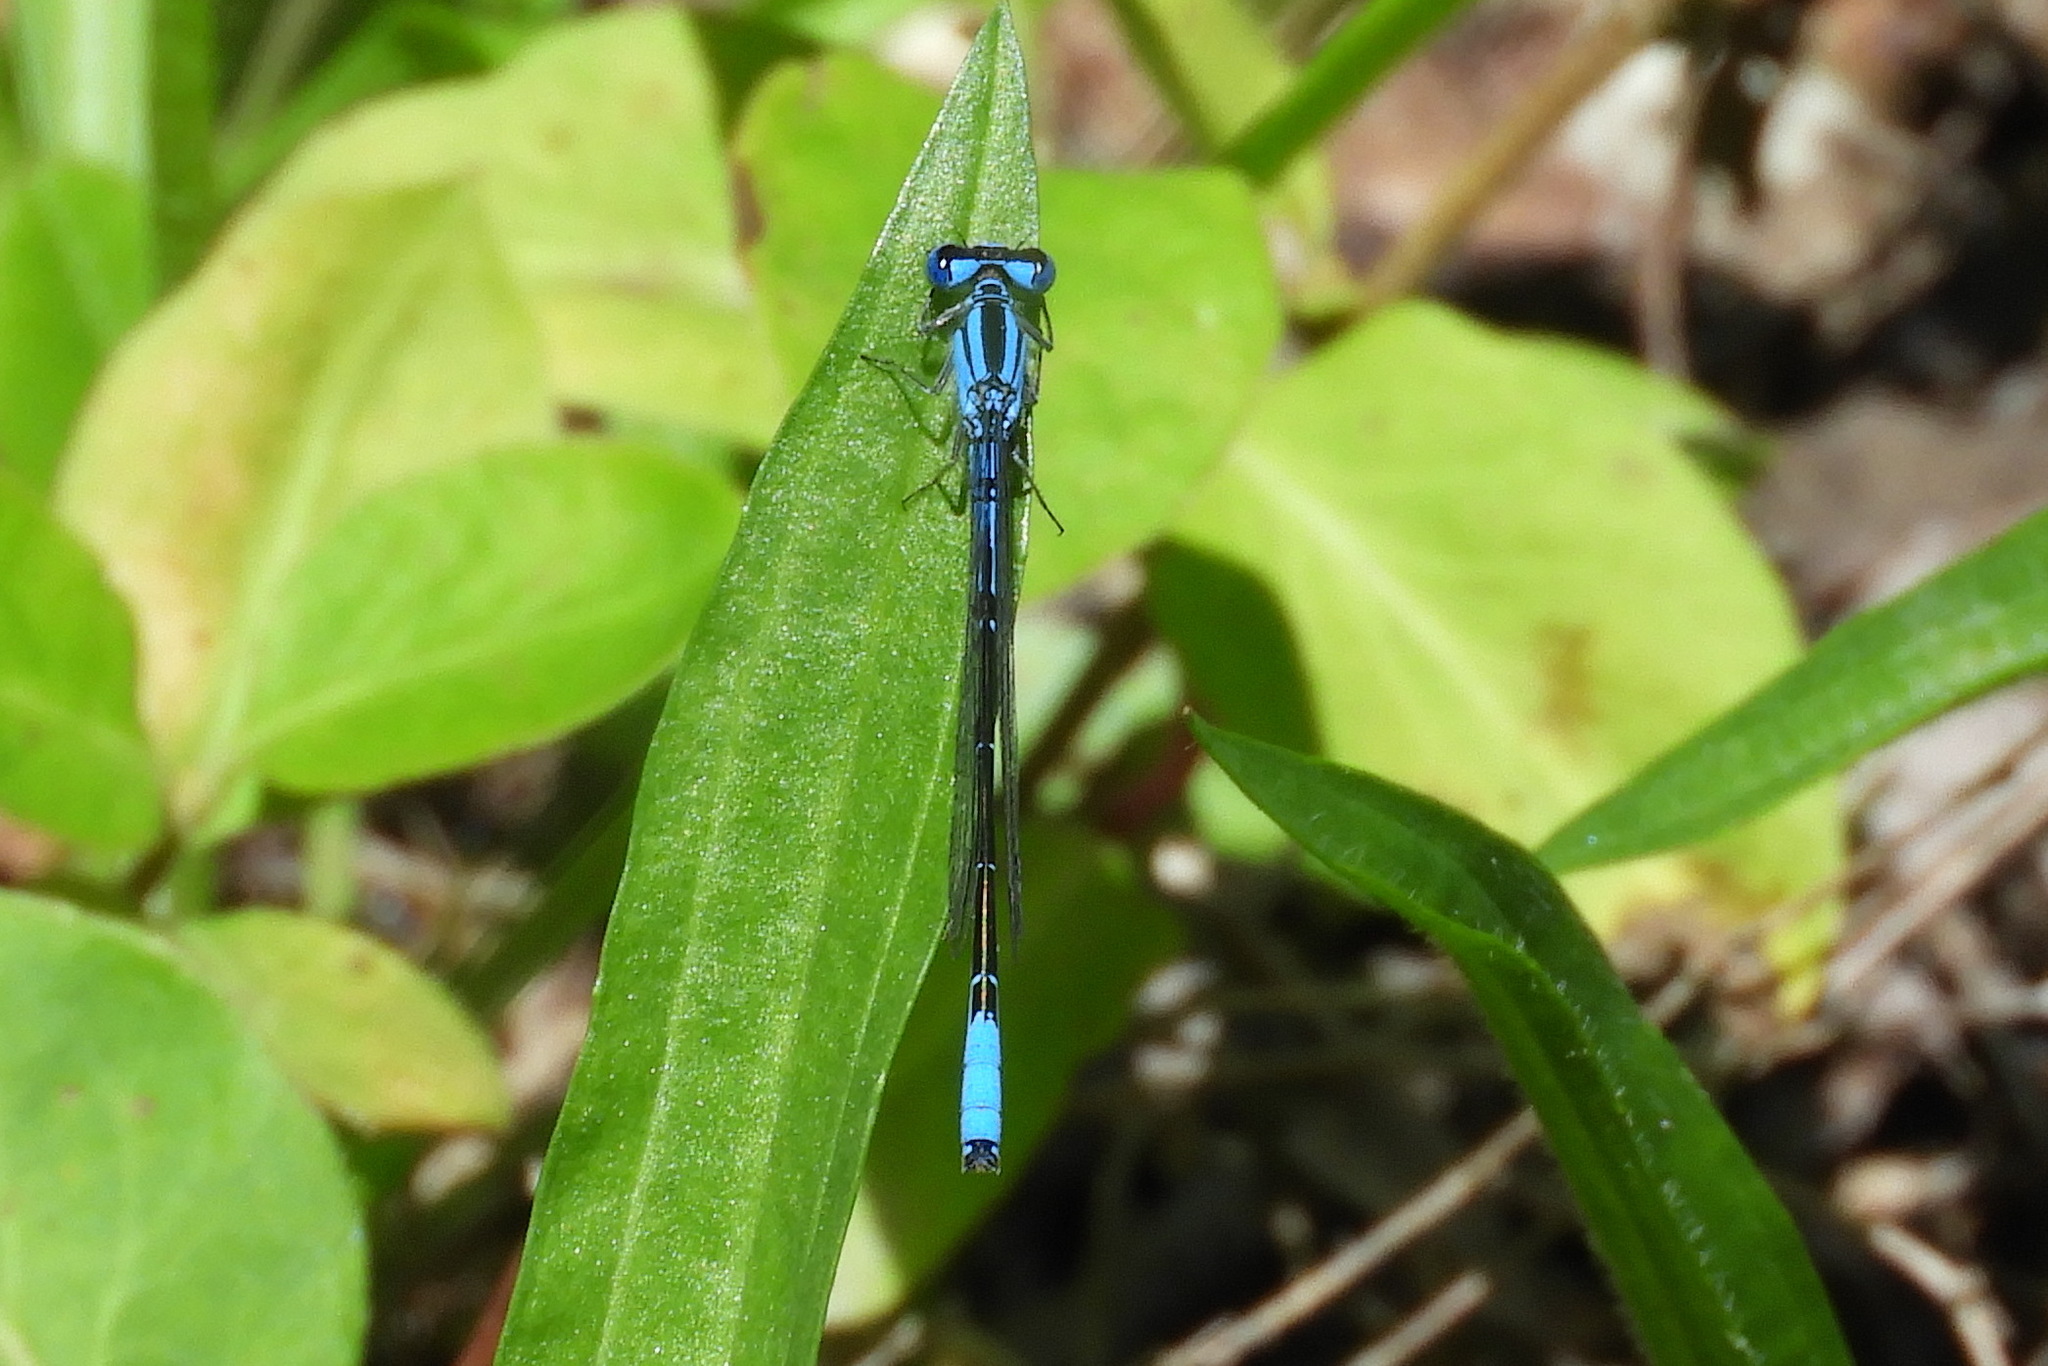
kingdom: Animalia
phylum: Arthropoda
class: Insecta
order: Odonata
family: Coenagrionidae
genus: Enallagma
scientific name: Enallagma aspersum
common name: Azure bluet
